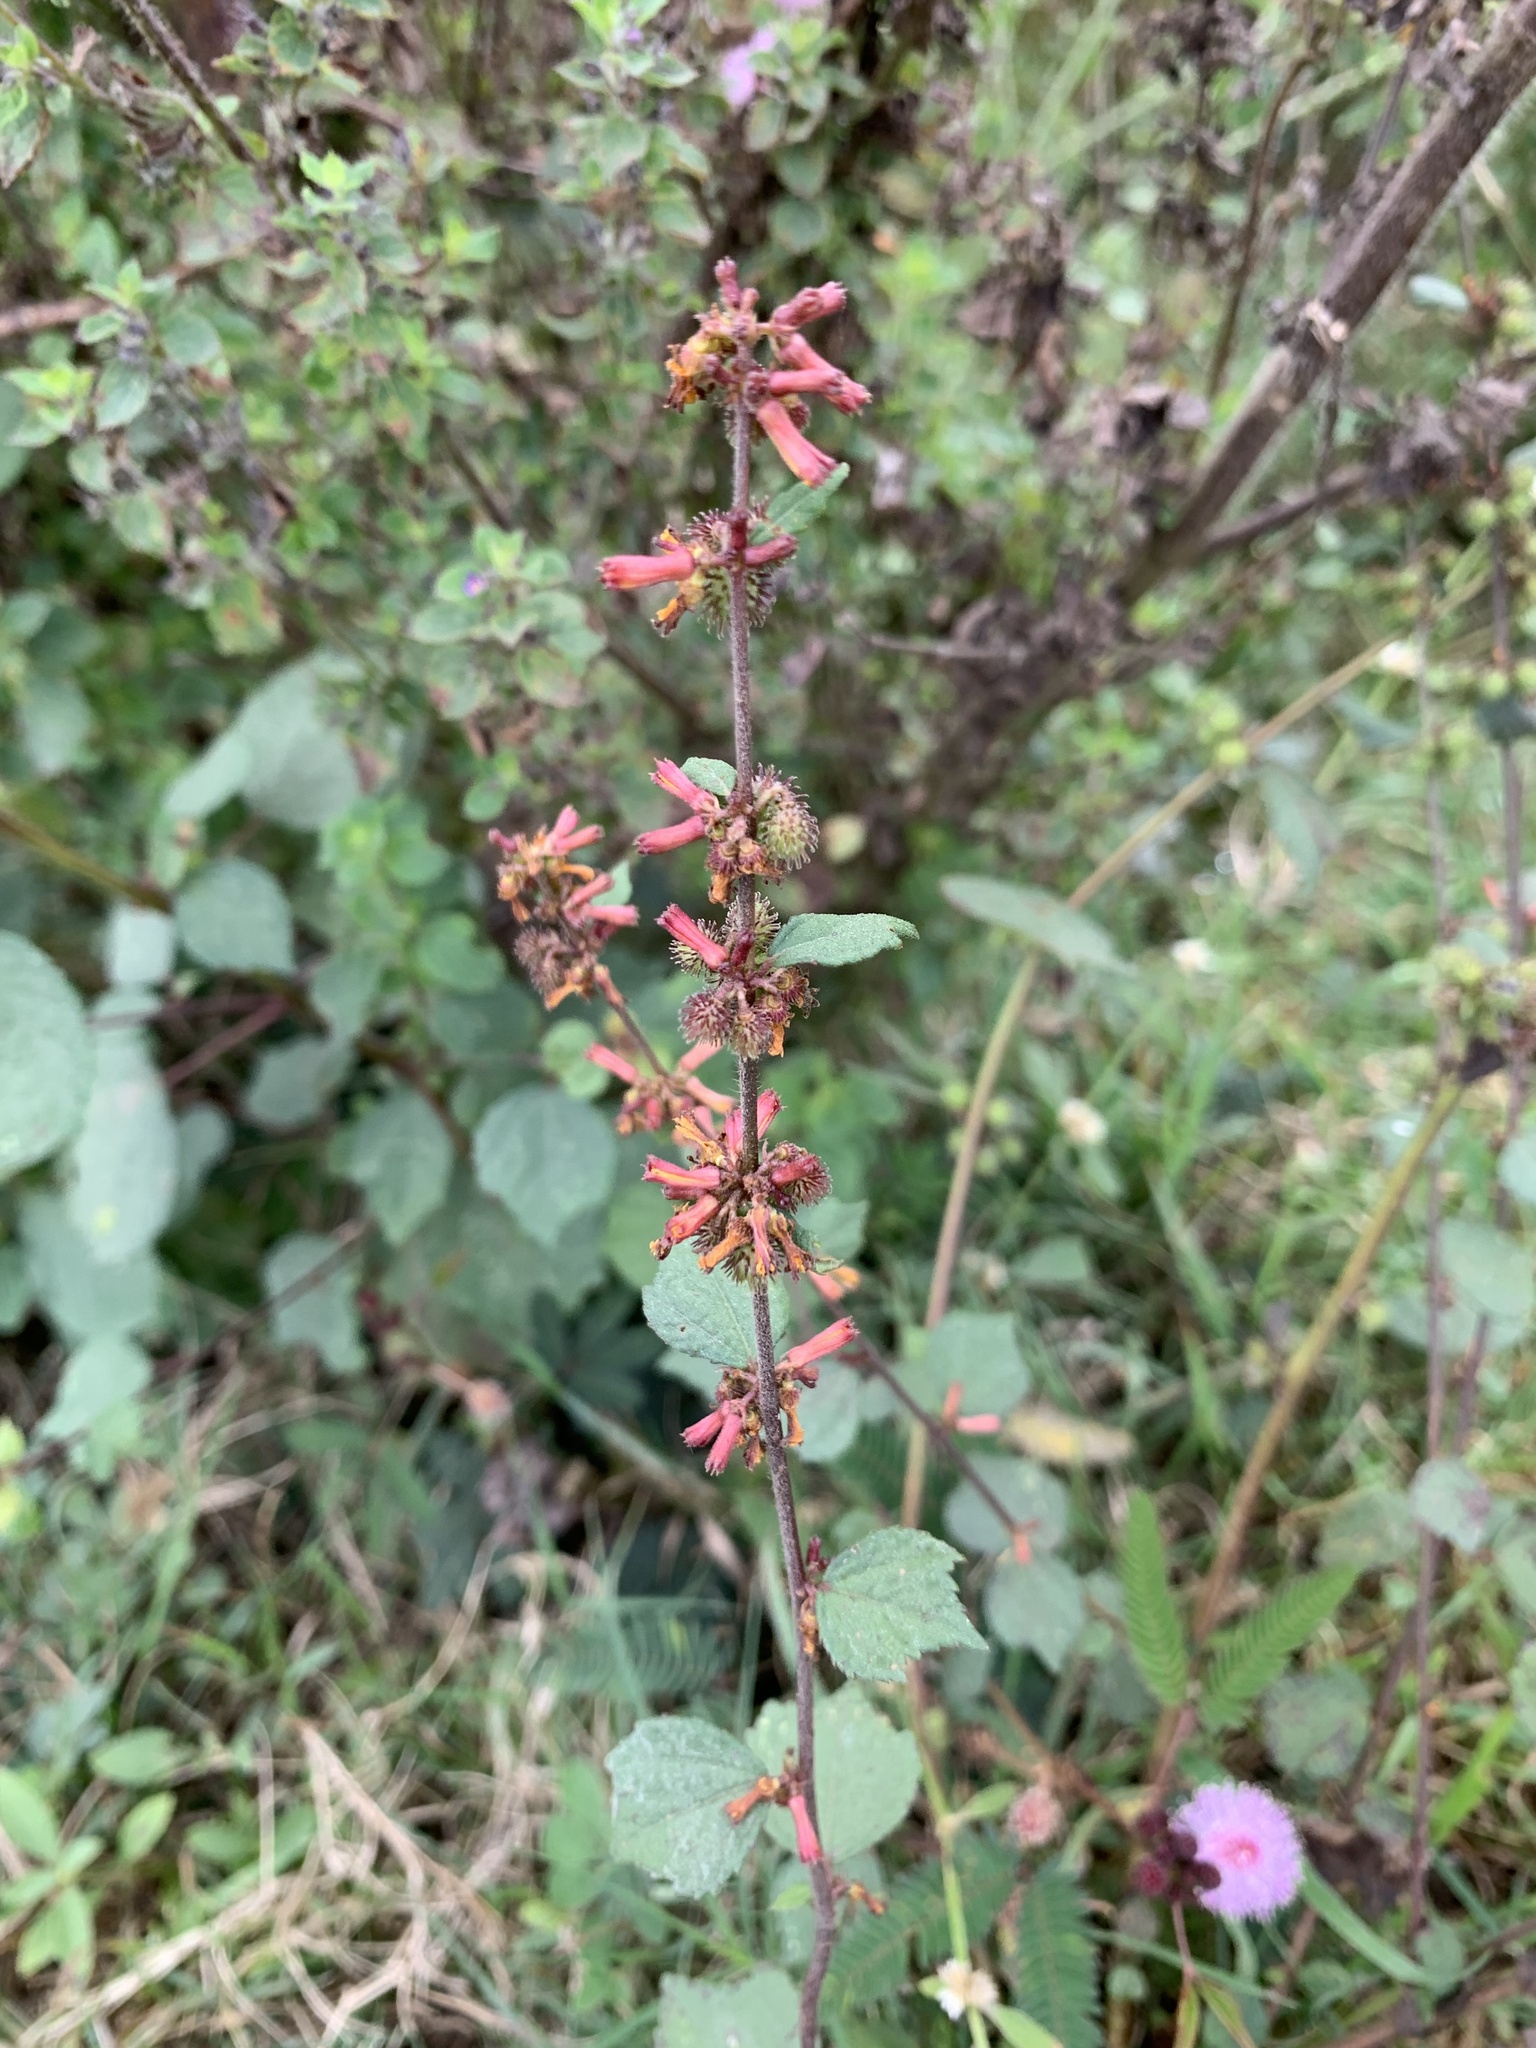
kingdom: Plantae
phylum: Tracheophyta
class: Magnoliopsida
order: Malvales
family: Malvaceae
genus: Triumfetta
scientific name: Triumfetta rhomboidea
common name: Diamond burbark
